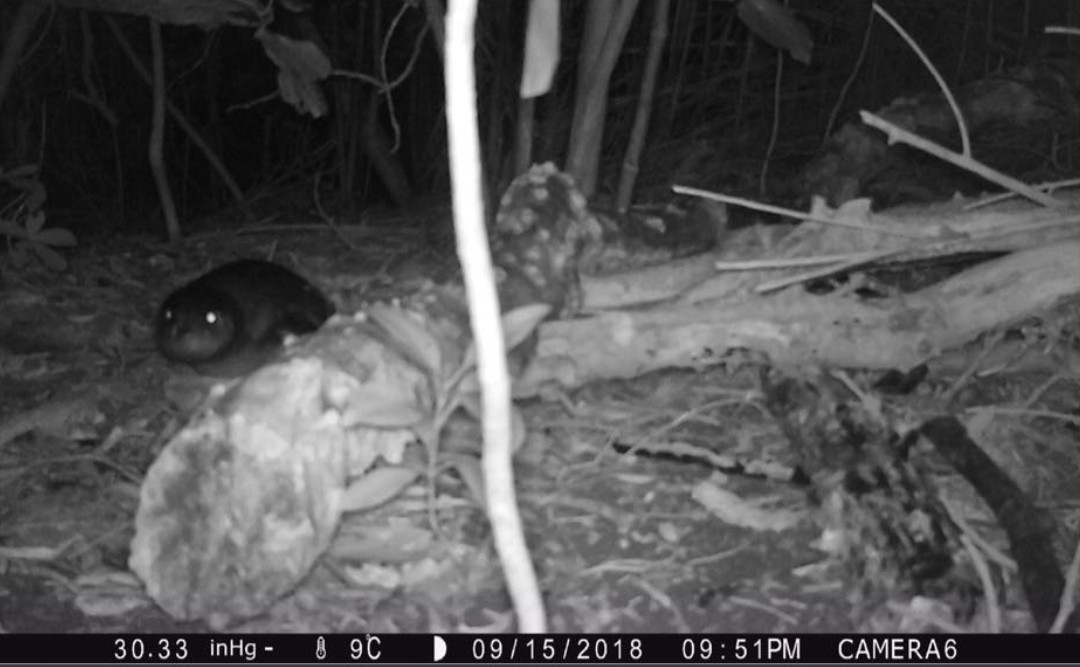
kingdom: Animalia
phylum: Chordata
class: Aves
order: Sphenisciformes
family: Spheniscidae
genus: Eudyptula
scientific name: Eudyptula minor
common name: Little penguin
